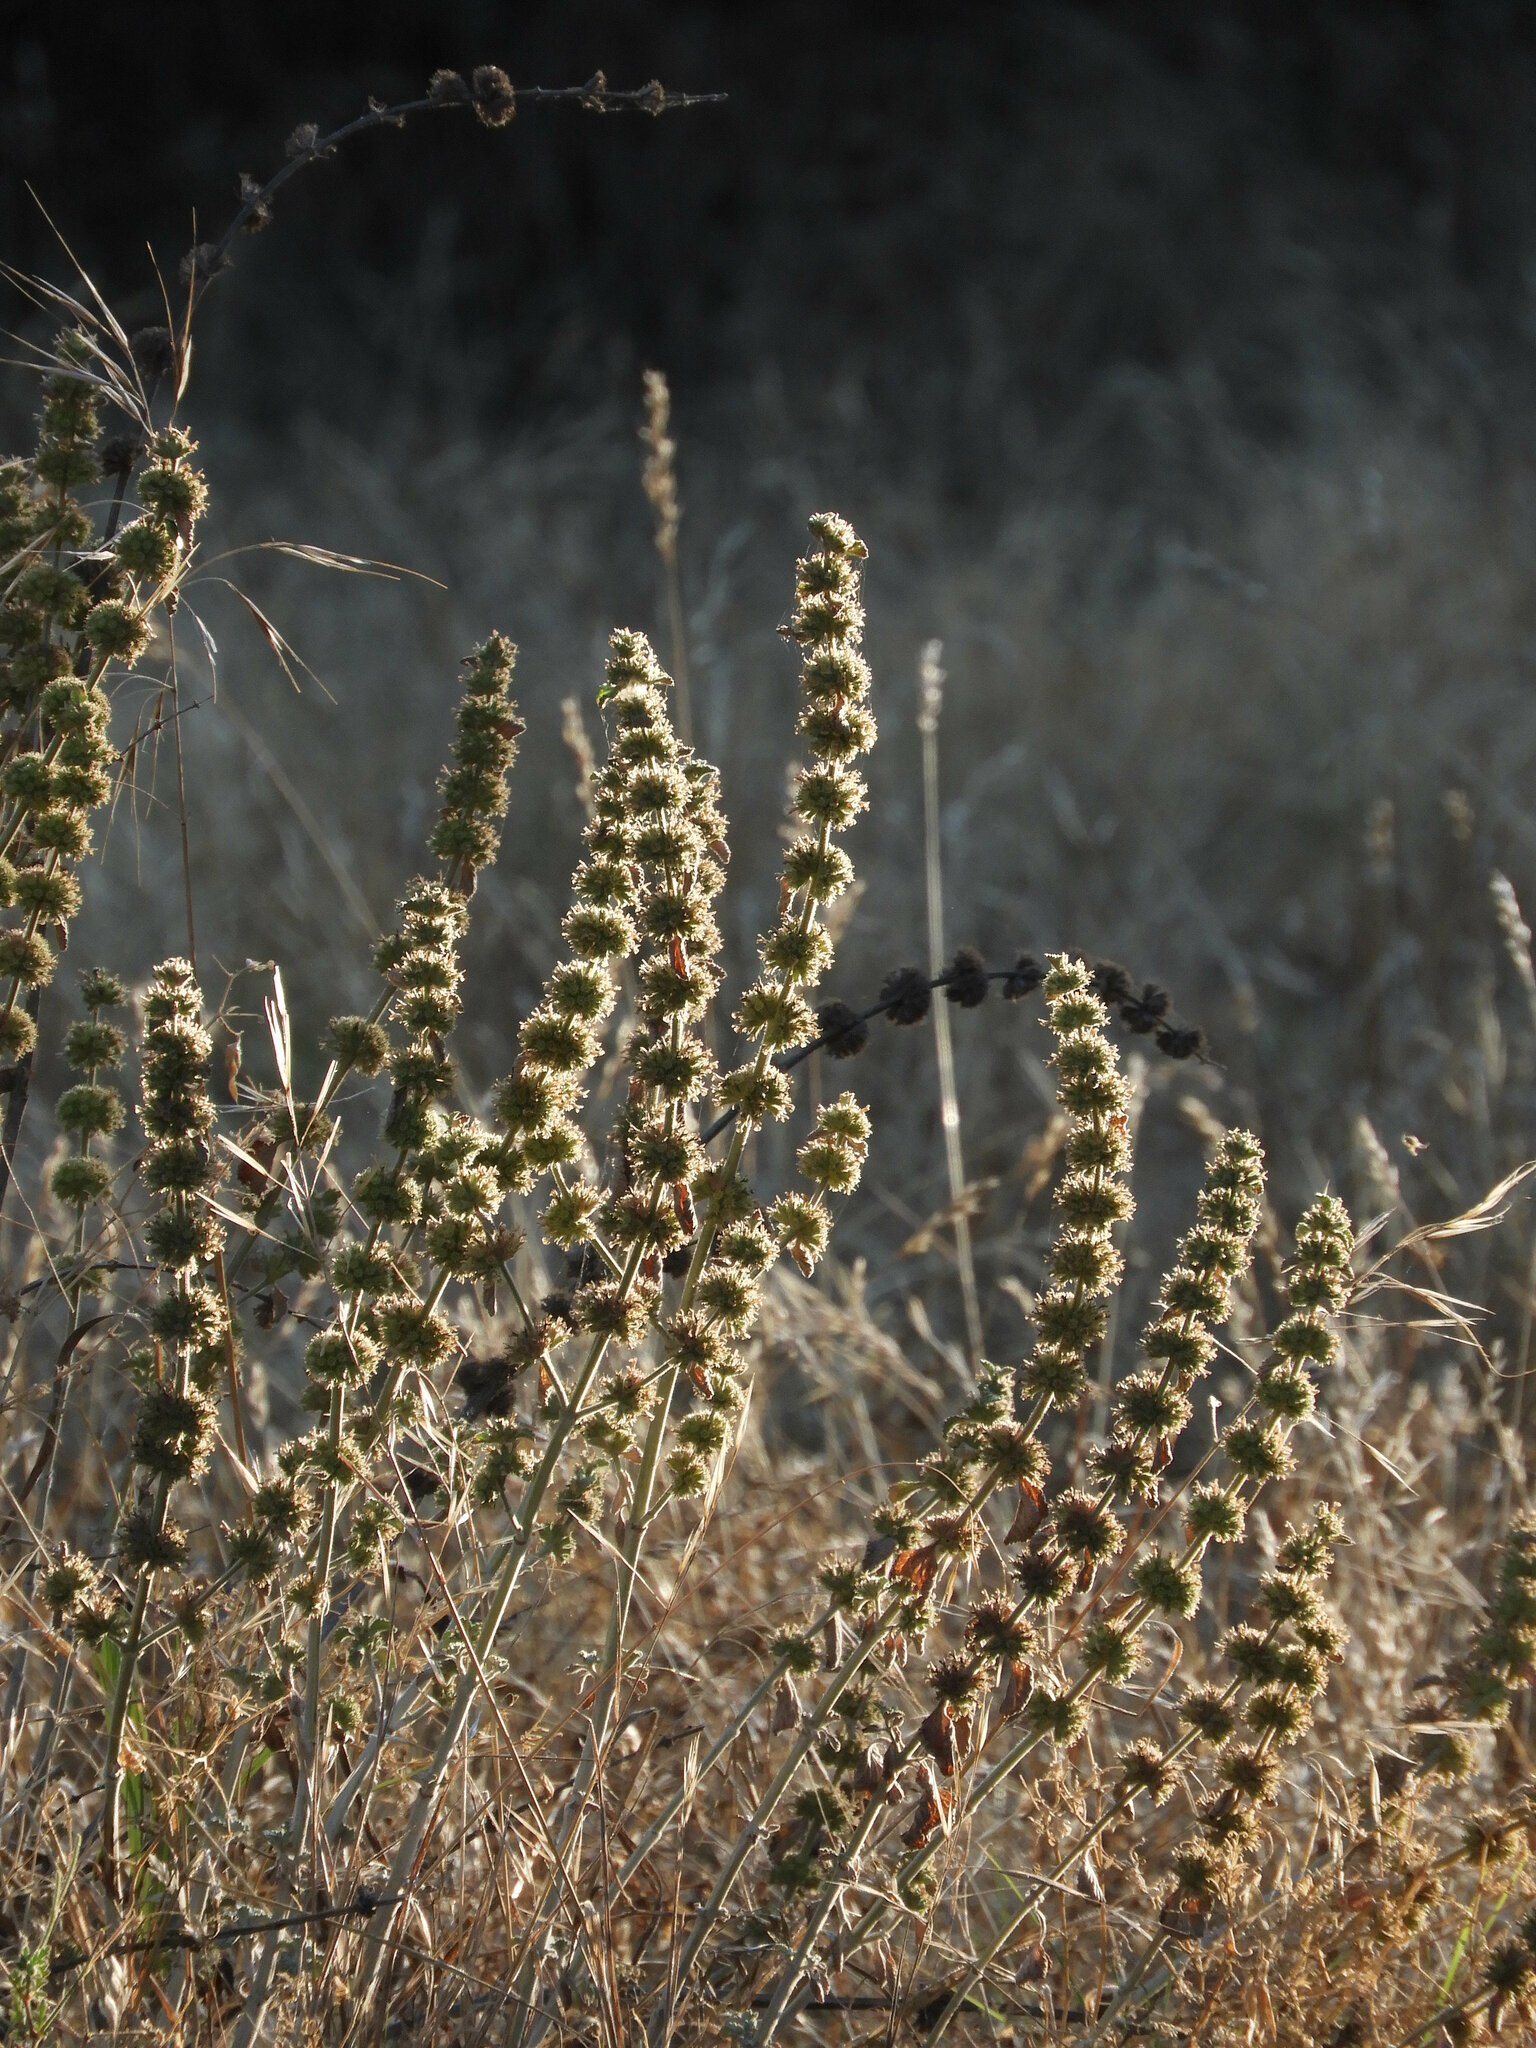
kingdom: Plantae
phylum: Tracheophyta
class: Magnoliopsida
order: Lamiales
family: Lamiaceae
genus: Marrubium
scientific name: Marrubium vulgare
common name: Horehound
